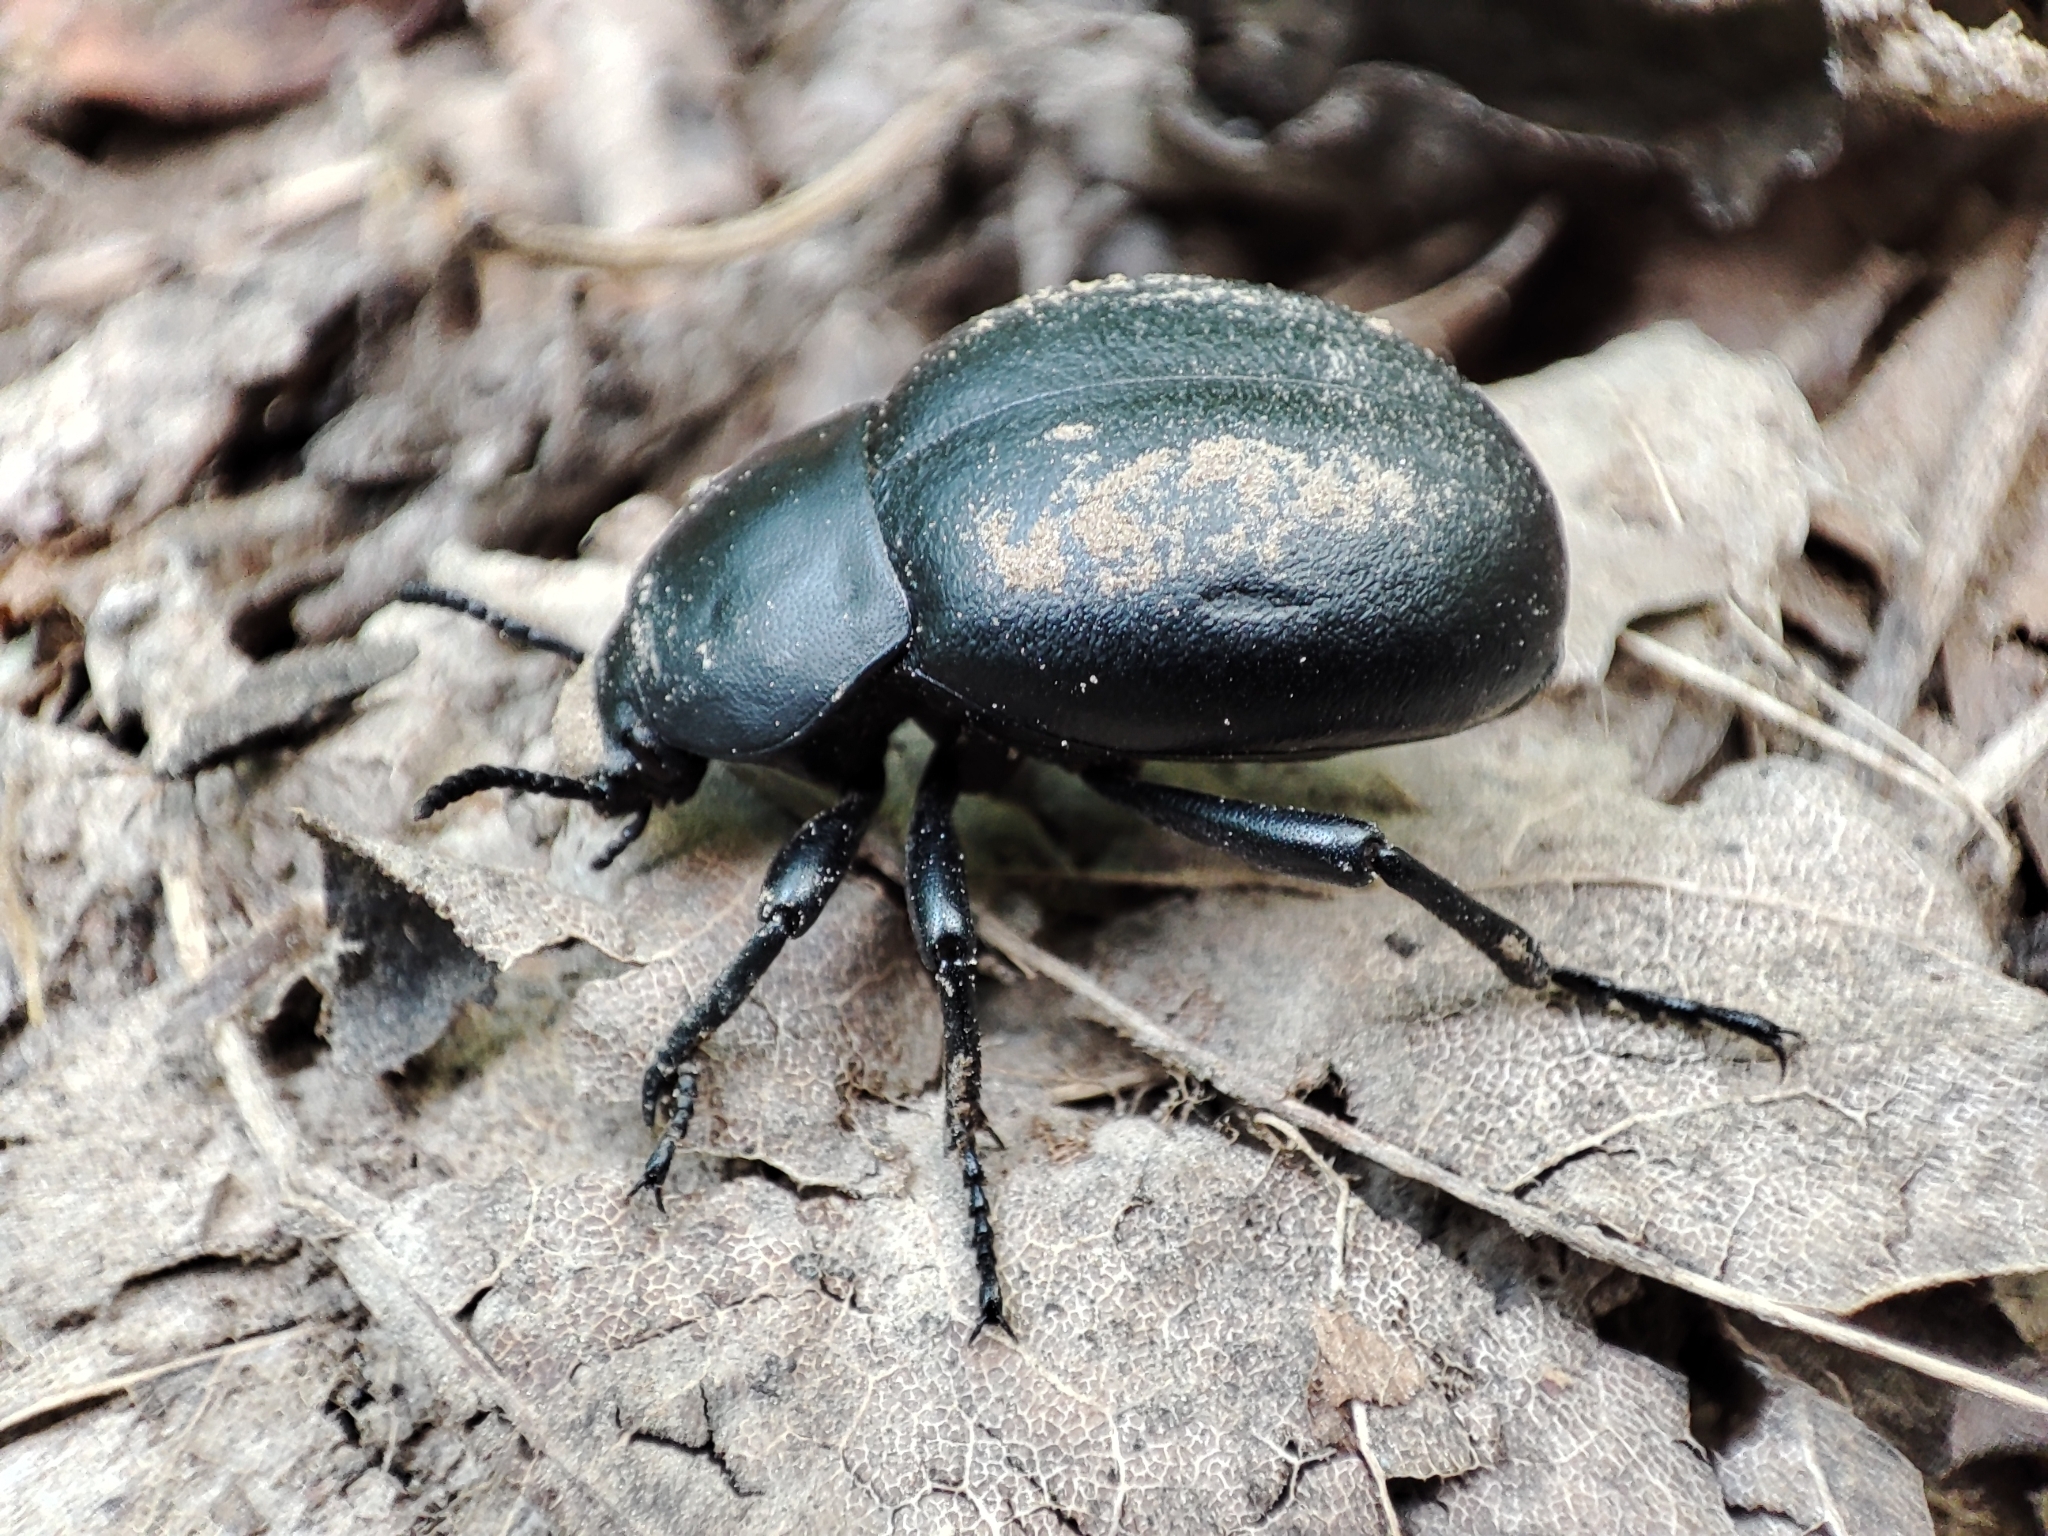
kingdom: Animalia
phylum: Arthropoda
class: Insecta
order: Coleoptera
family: Tenebrionidae
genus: Gnaptor
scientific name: Gnaptor spinimanus
